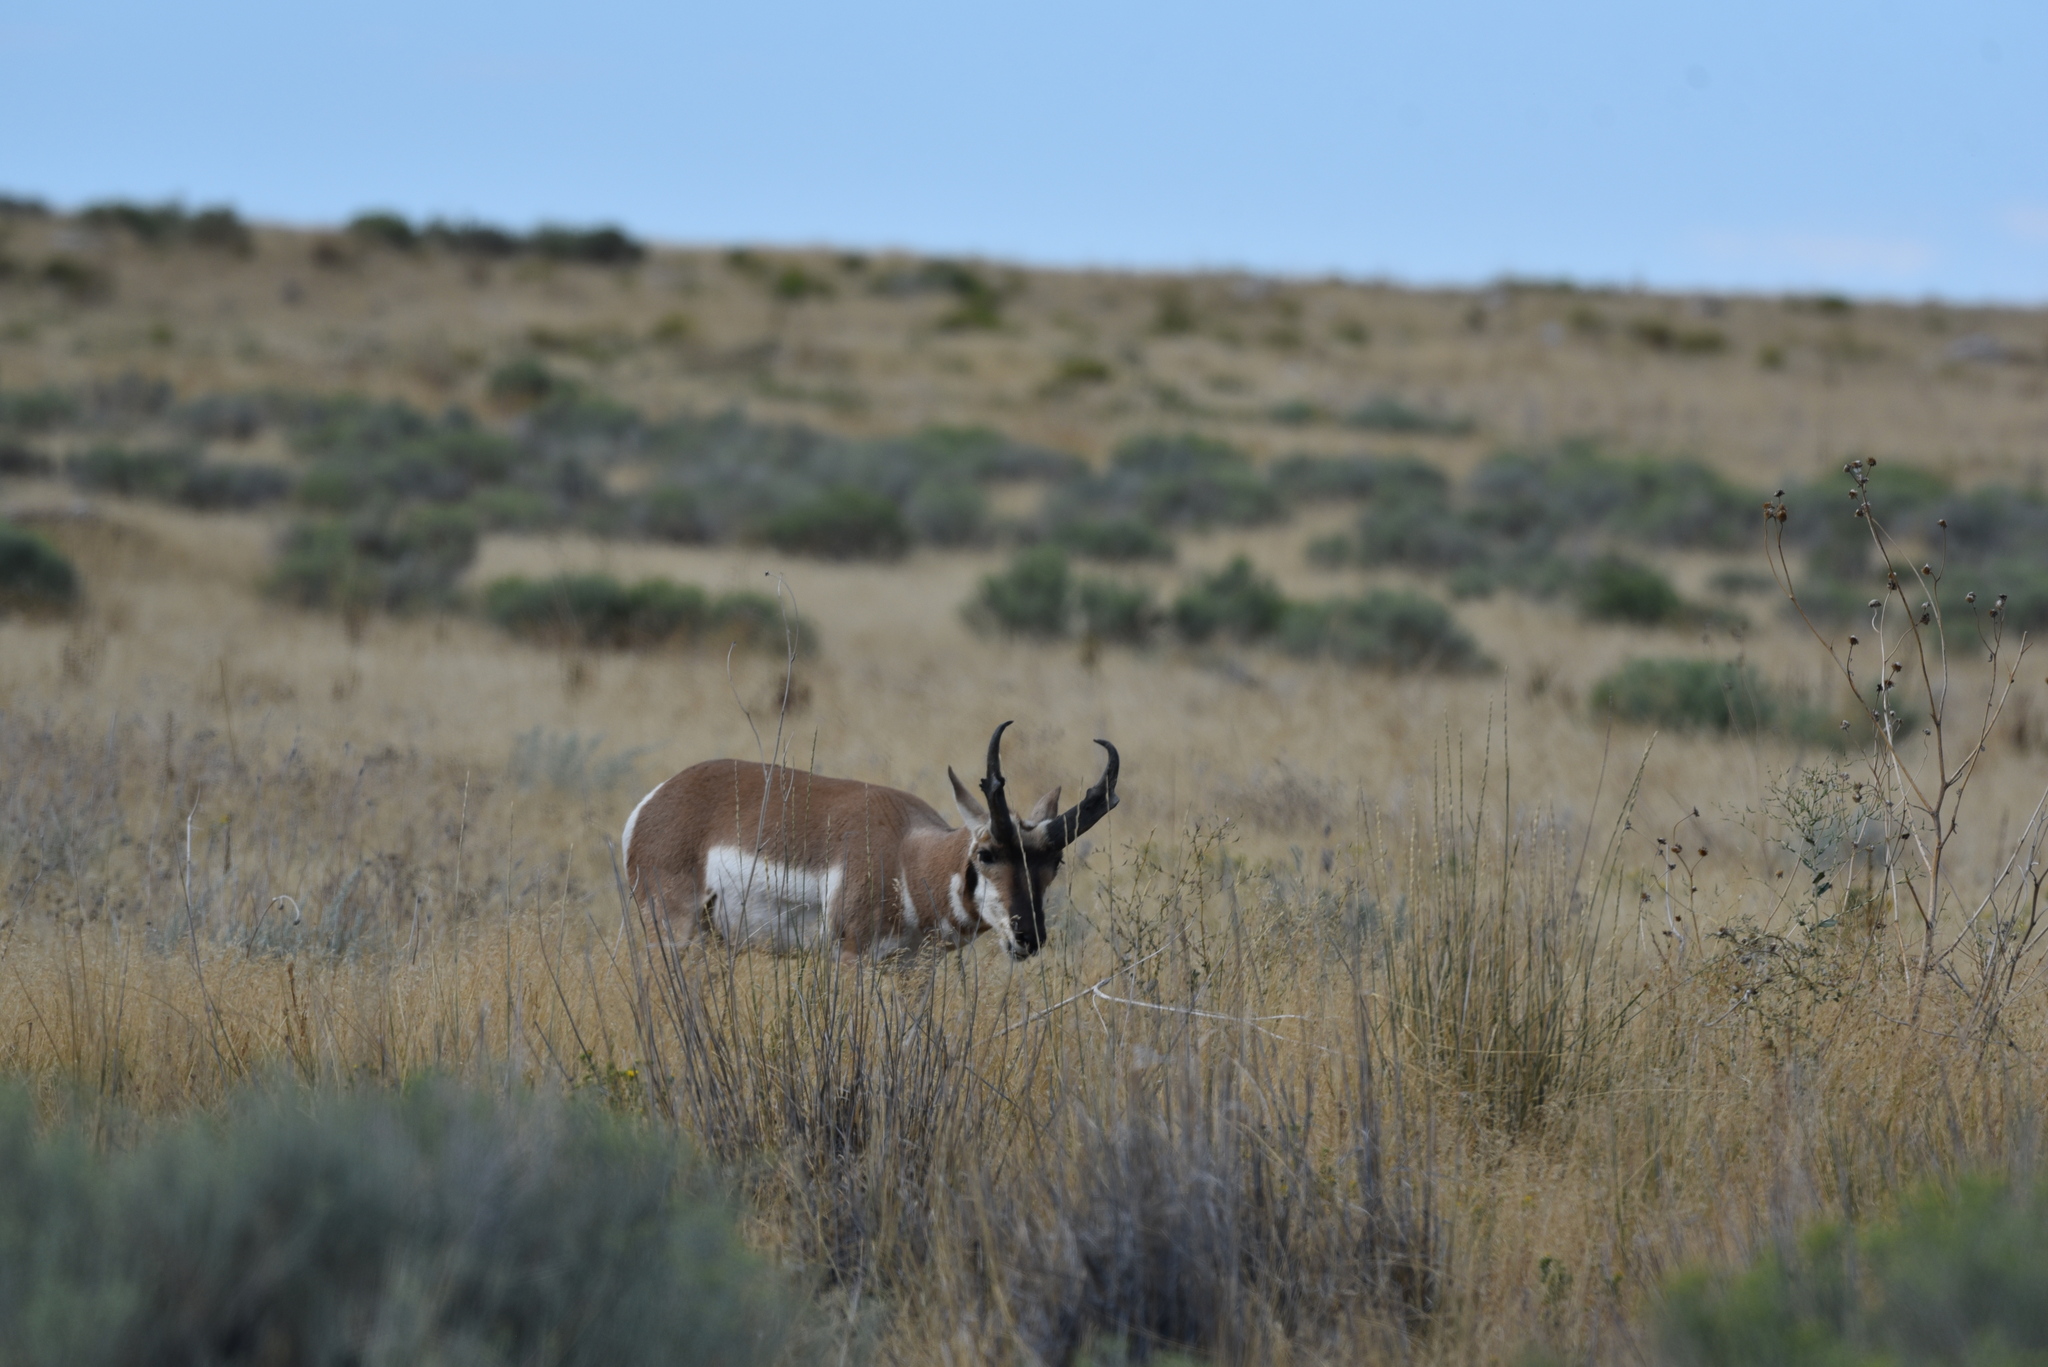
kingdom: Animalia
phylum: Chordata
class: Mammalia
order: Artiodactyla
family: Antilocapridae
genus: Antilocapra
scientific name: Antilocapra americana
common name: Pronghorn
